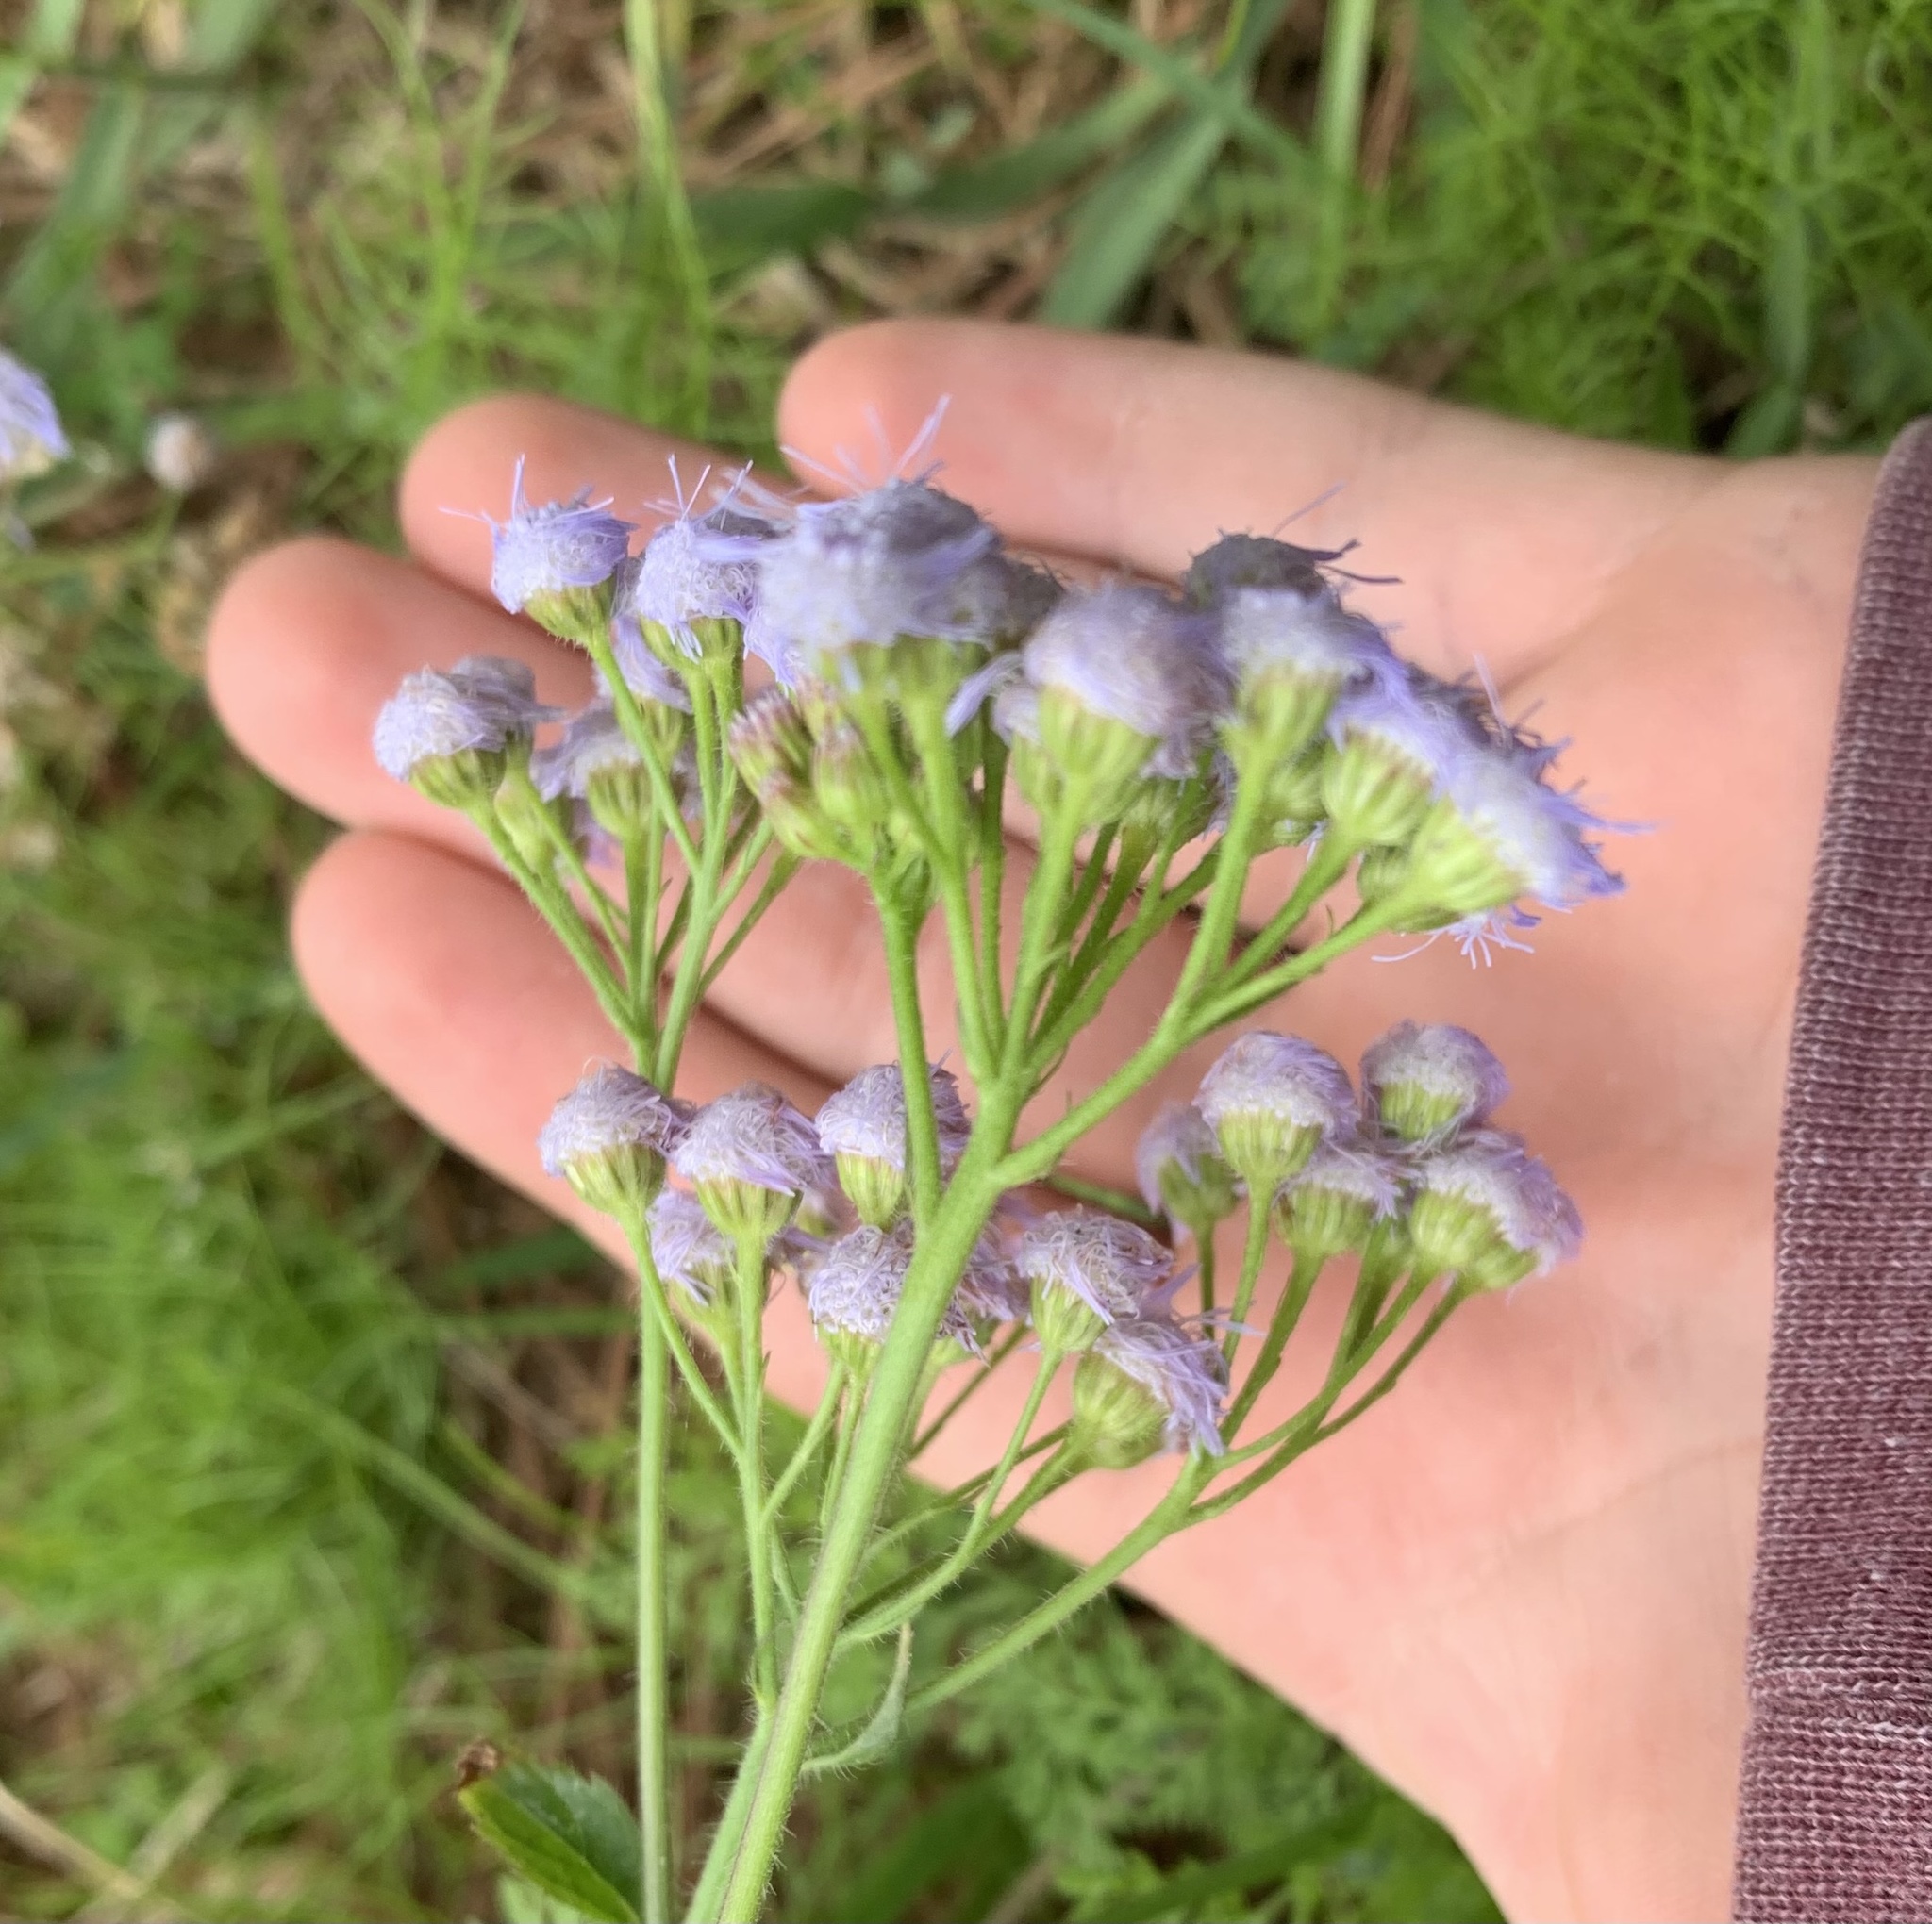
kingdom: Plantae
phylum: Tracheophyta
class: Magnoliopsida
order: Asterales
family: Asteraceae
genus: Ageratum
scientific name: Ageratum houstonianum
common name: Bluemink
